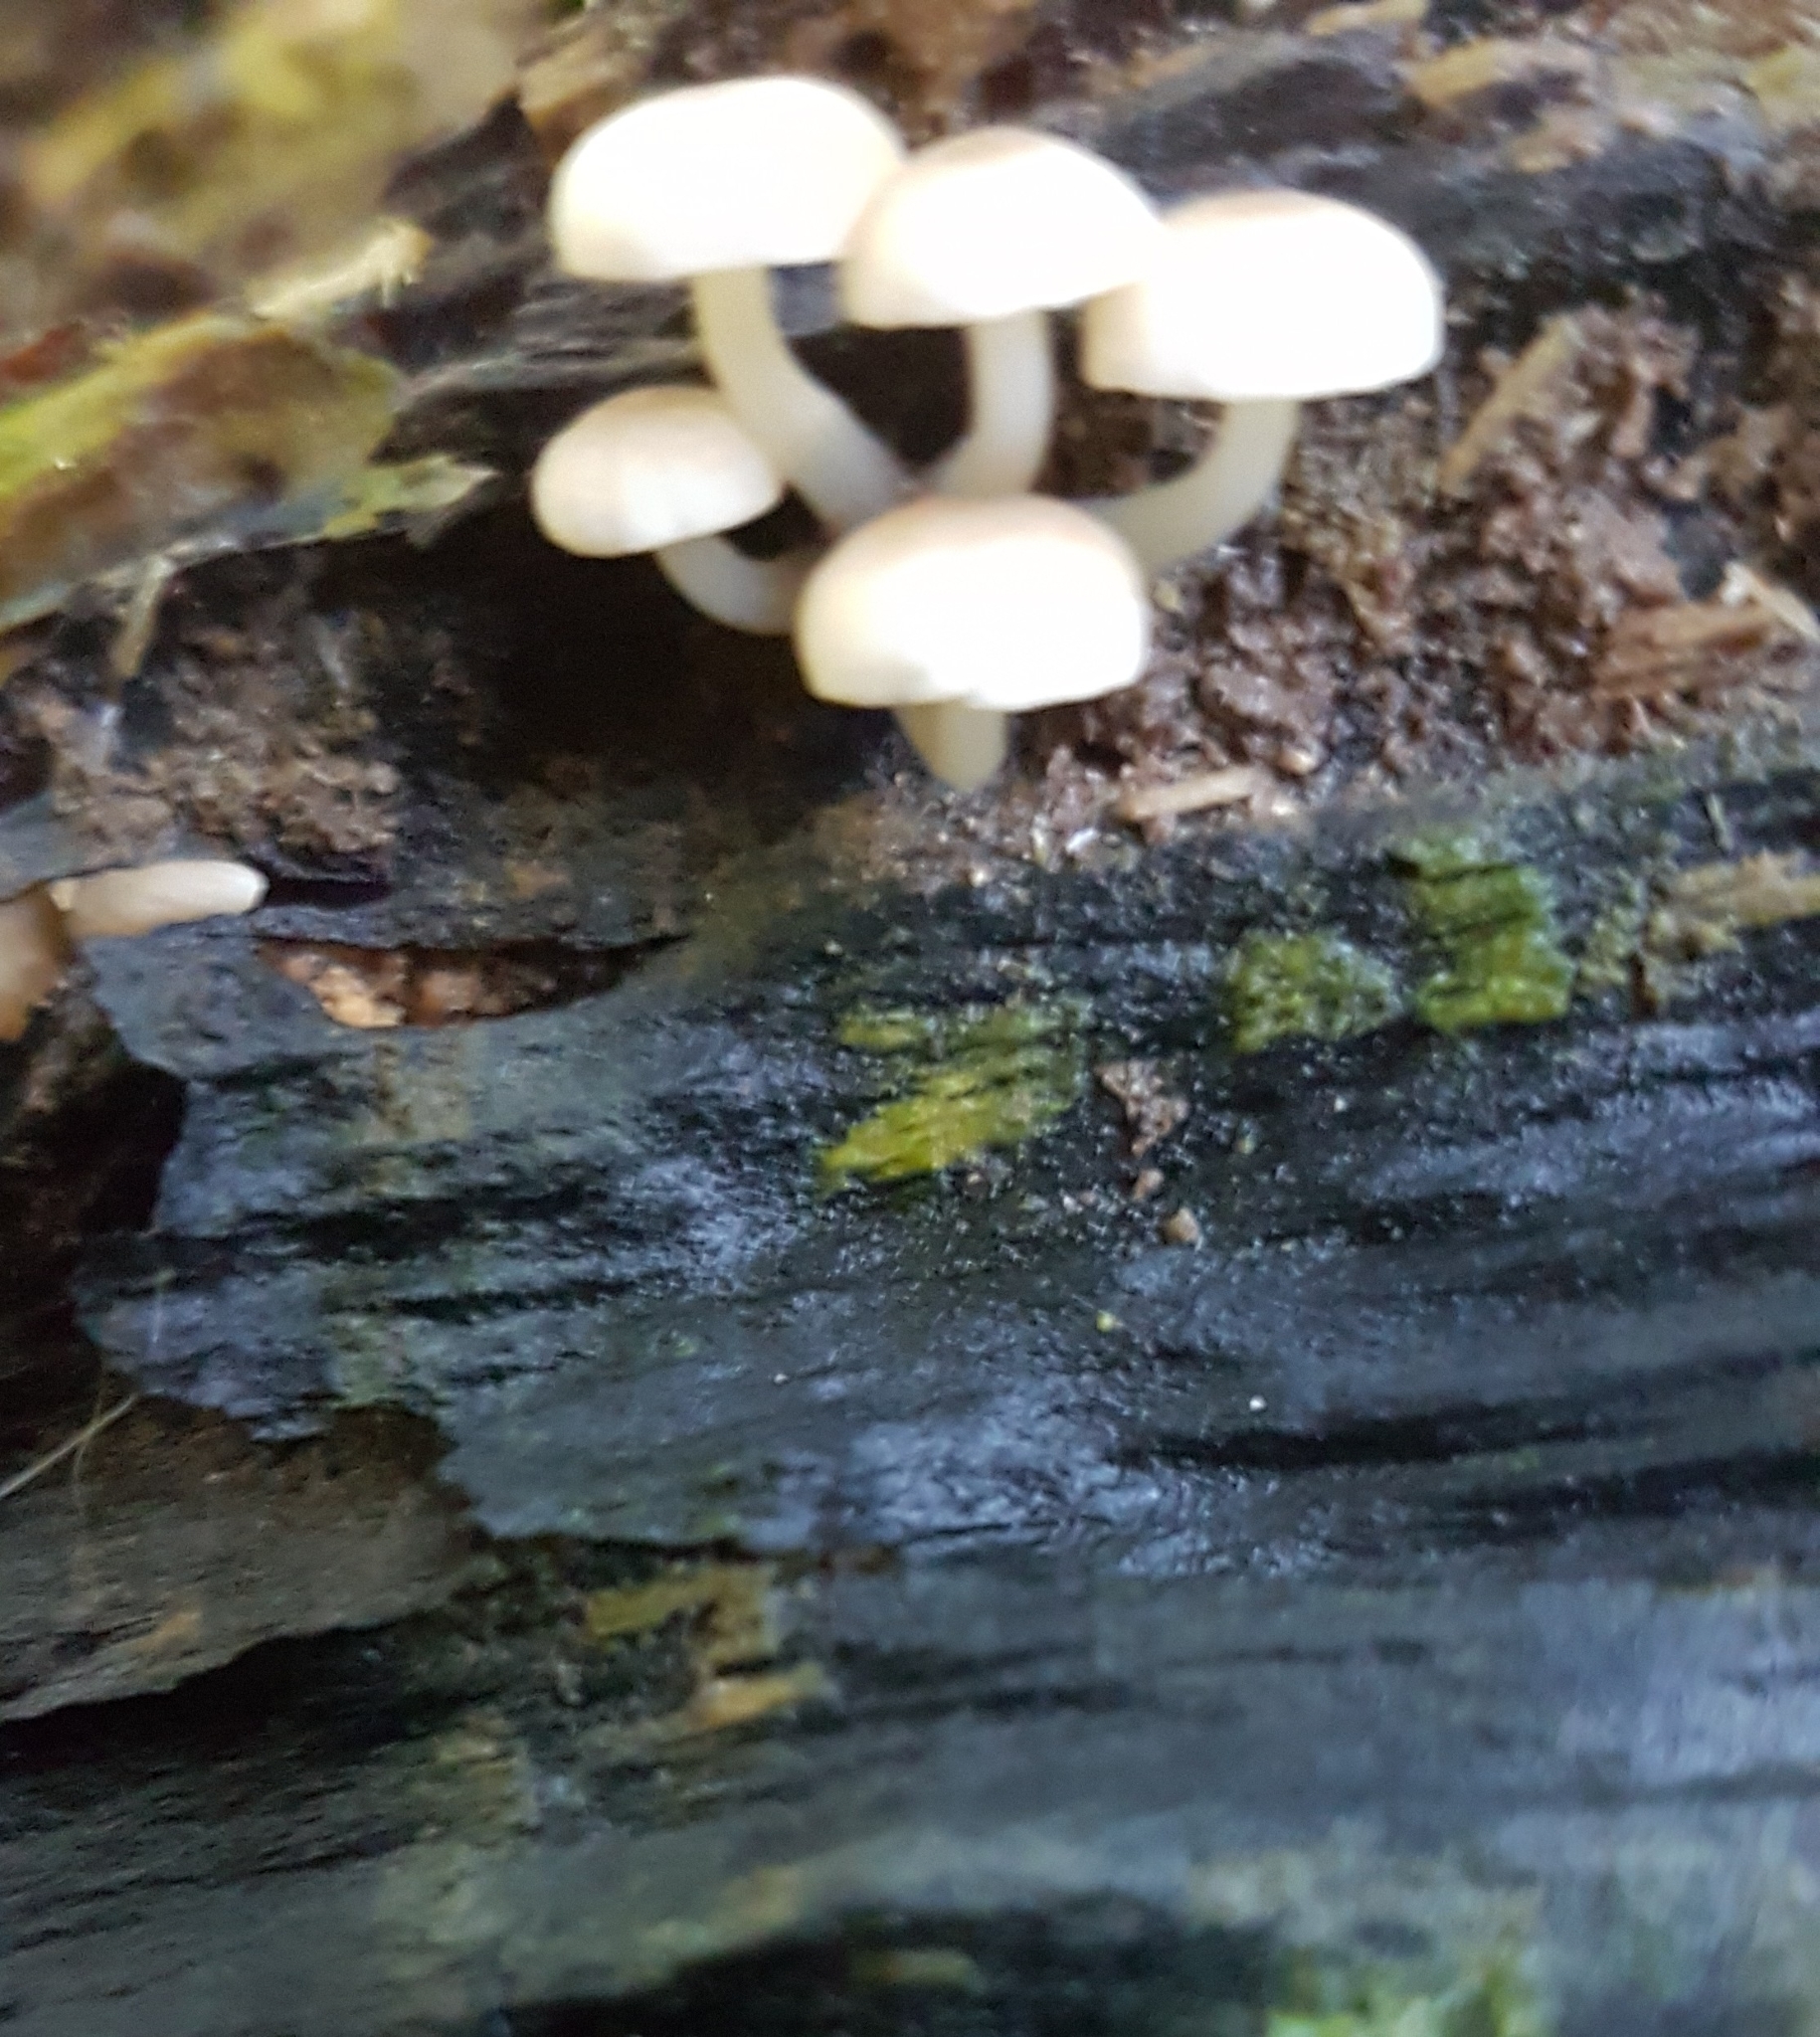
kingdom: Fungi
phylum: Basidiomycota
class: Agaricomycetes
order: Agaricales
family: Mycenaceae
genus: Roridomyces
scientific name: Roridomyces austrororidus
